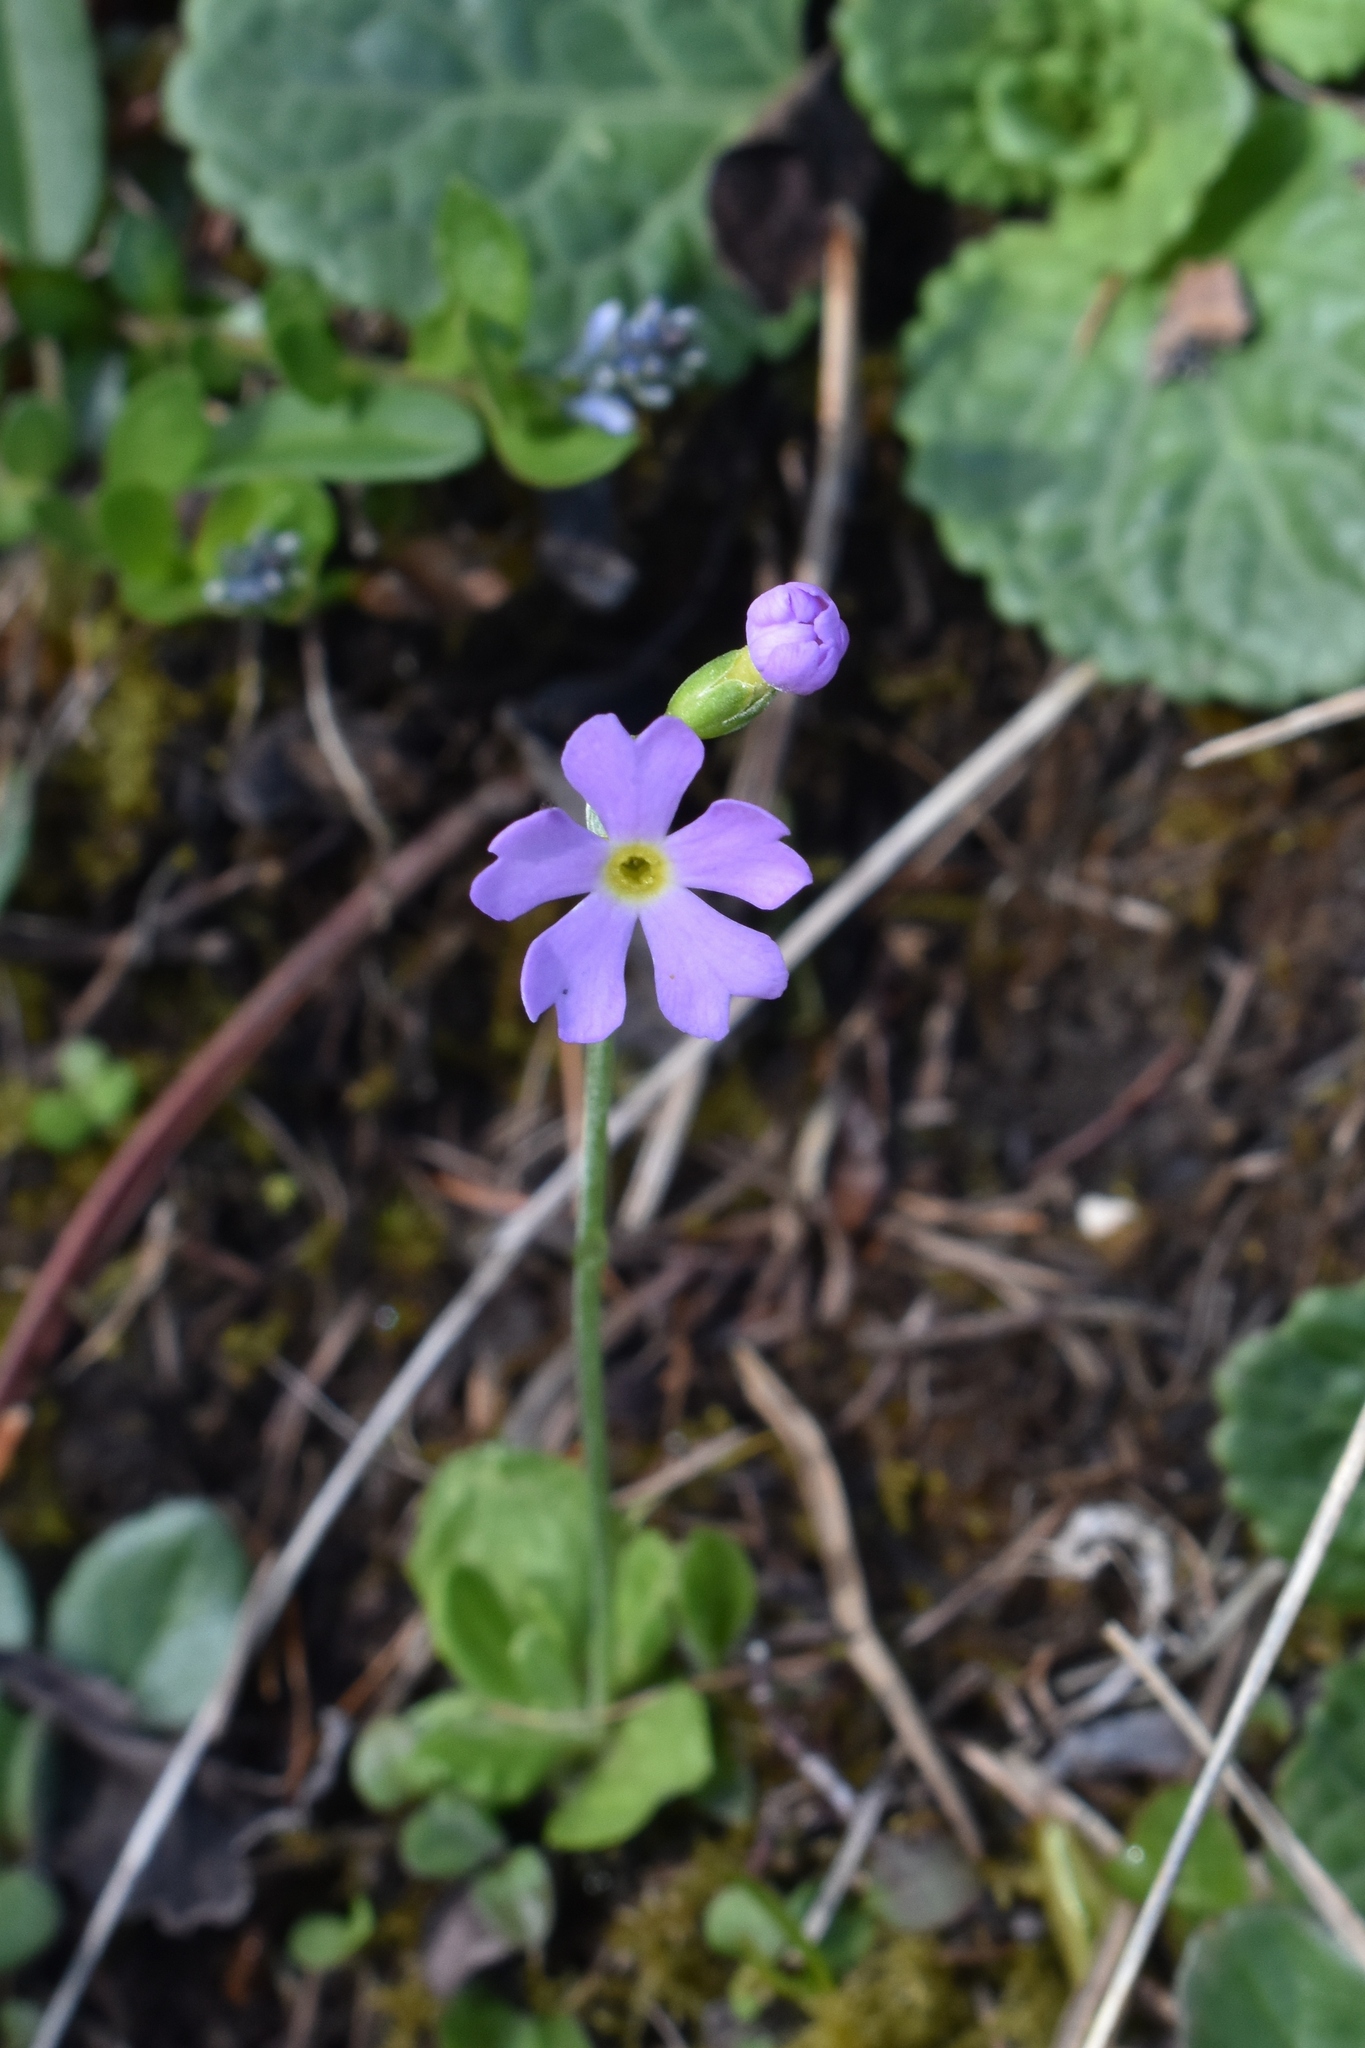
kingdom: Plantae
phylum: Tracheophyta
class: Magnoliopsida
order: Ericales
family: Primulaceae
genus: Primula
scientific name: Primula farinosa
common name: Bird's-eye primrose
